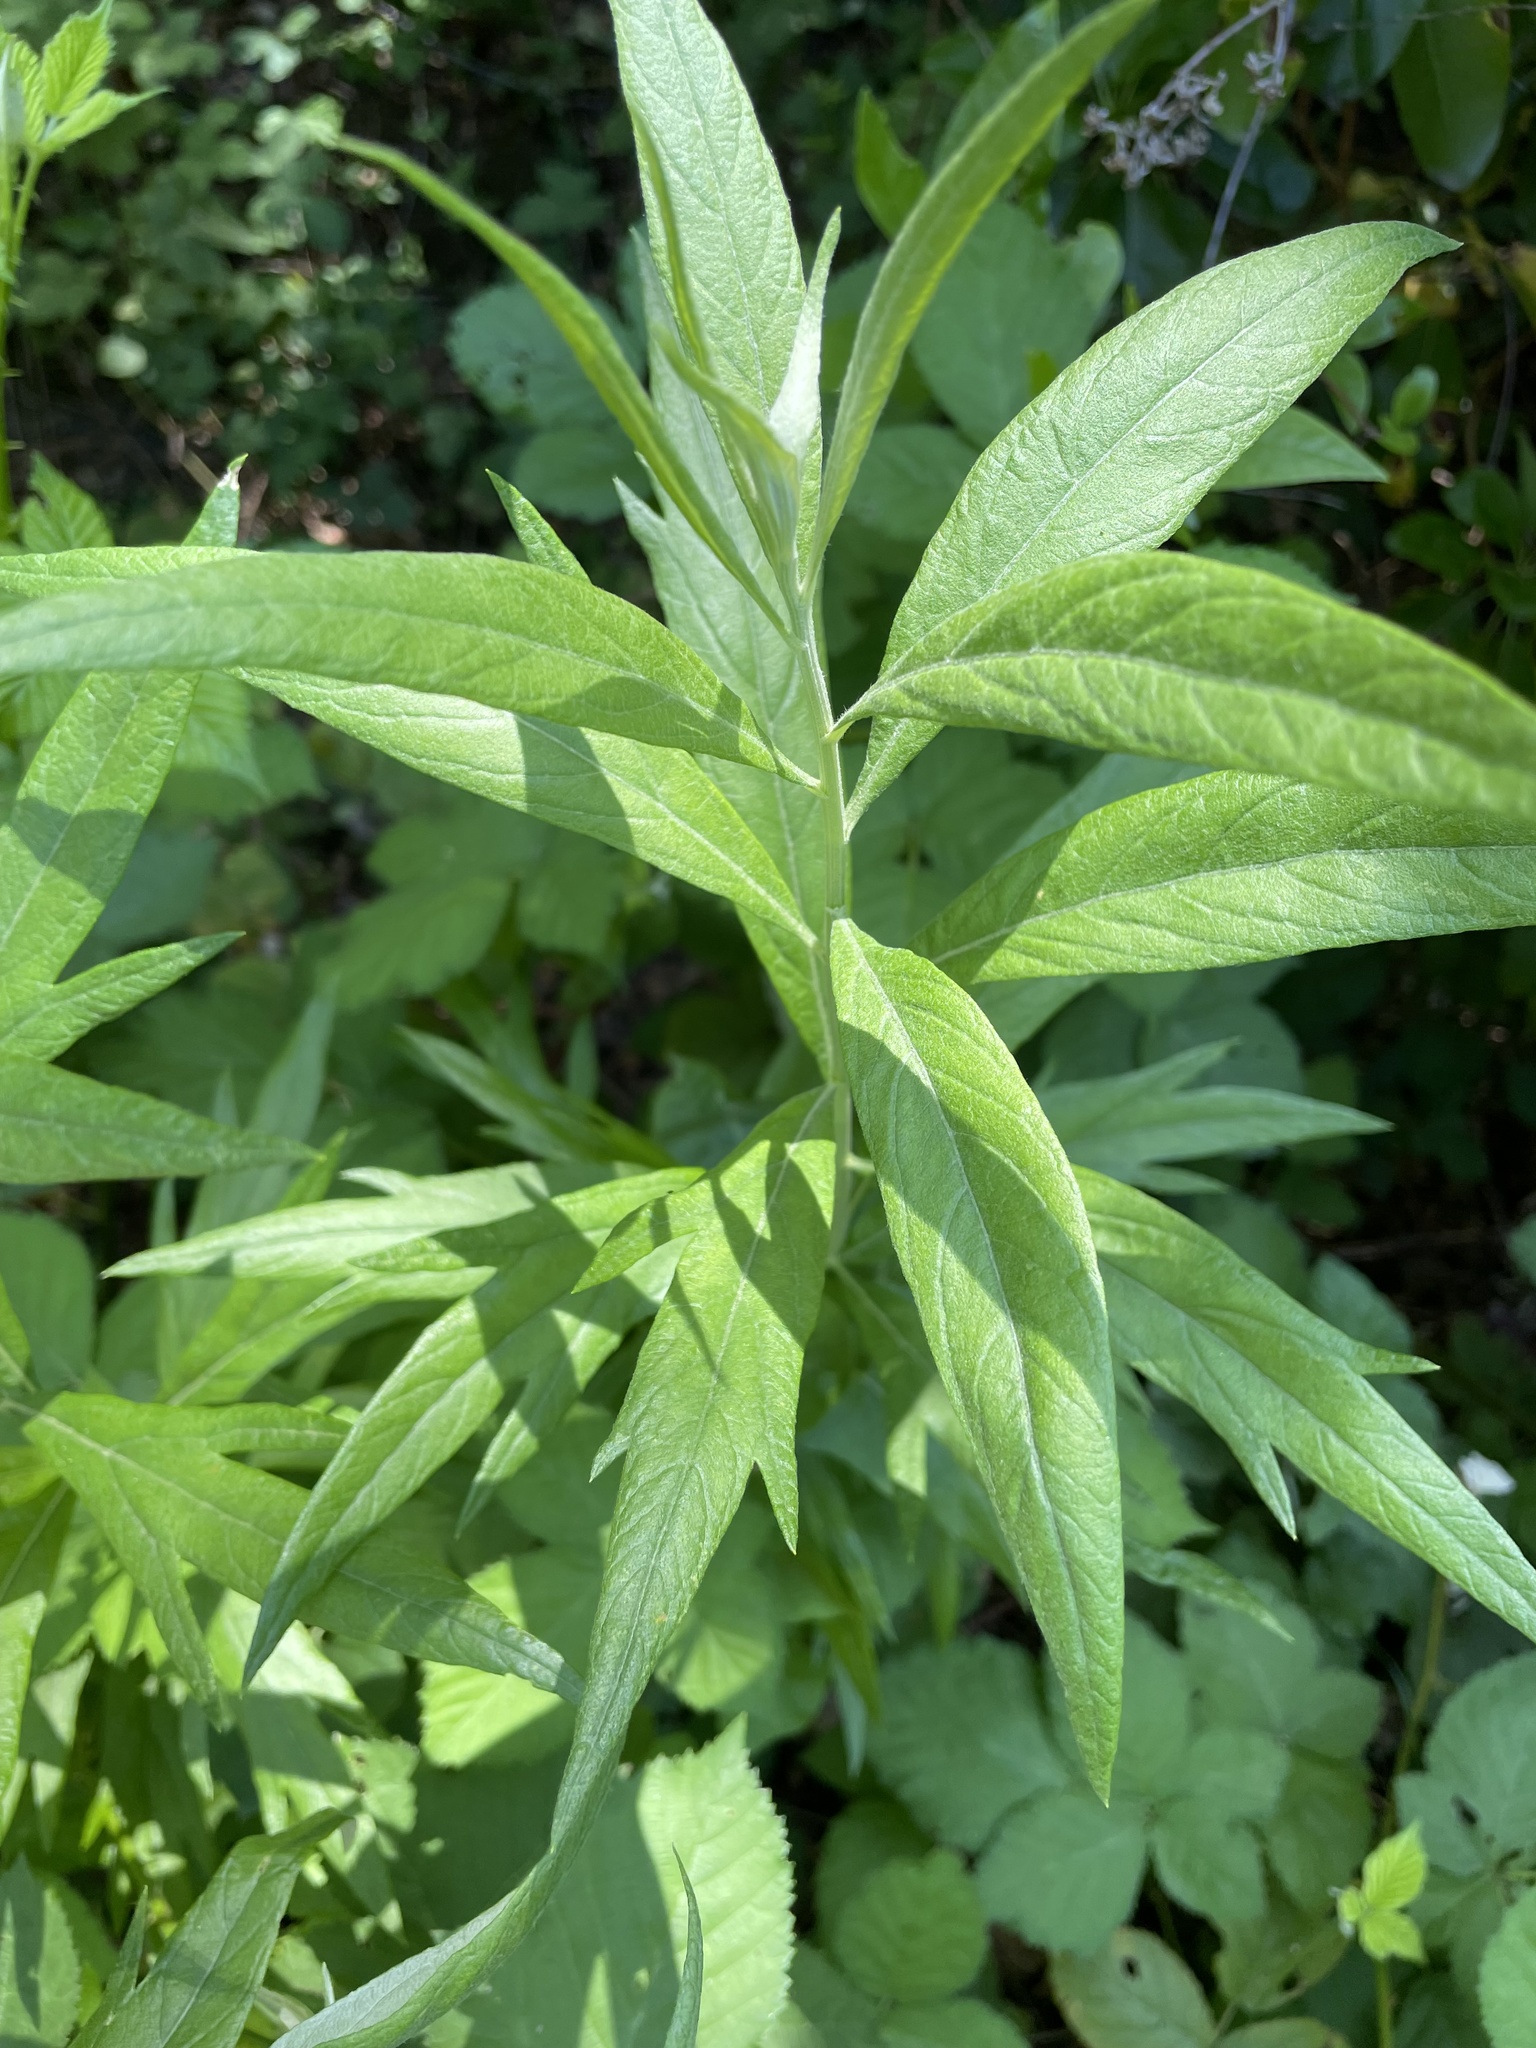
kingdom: Plantae
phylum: Tracheophyta
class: Magnoliopsida
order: Asterales
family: Asteraceae
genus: Artemisia
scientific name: Artemisia douglasiana
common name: Northwest mugwort
